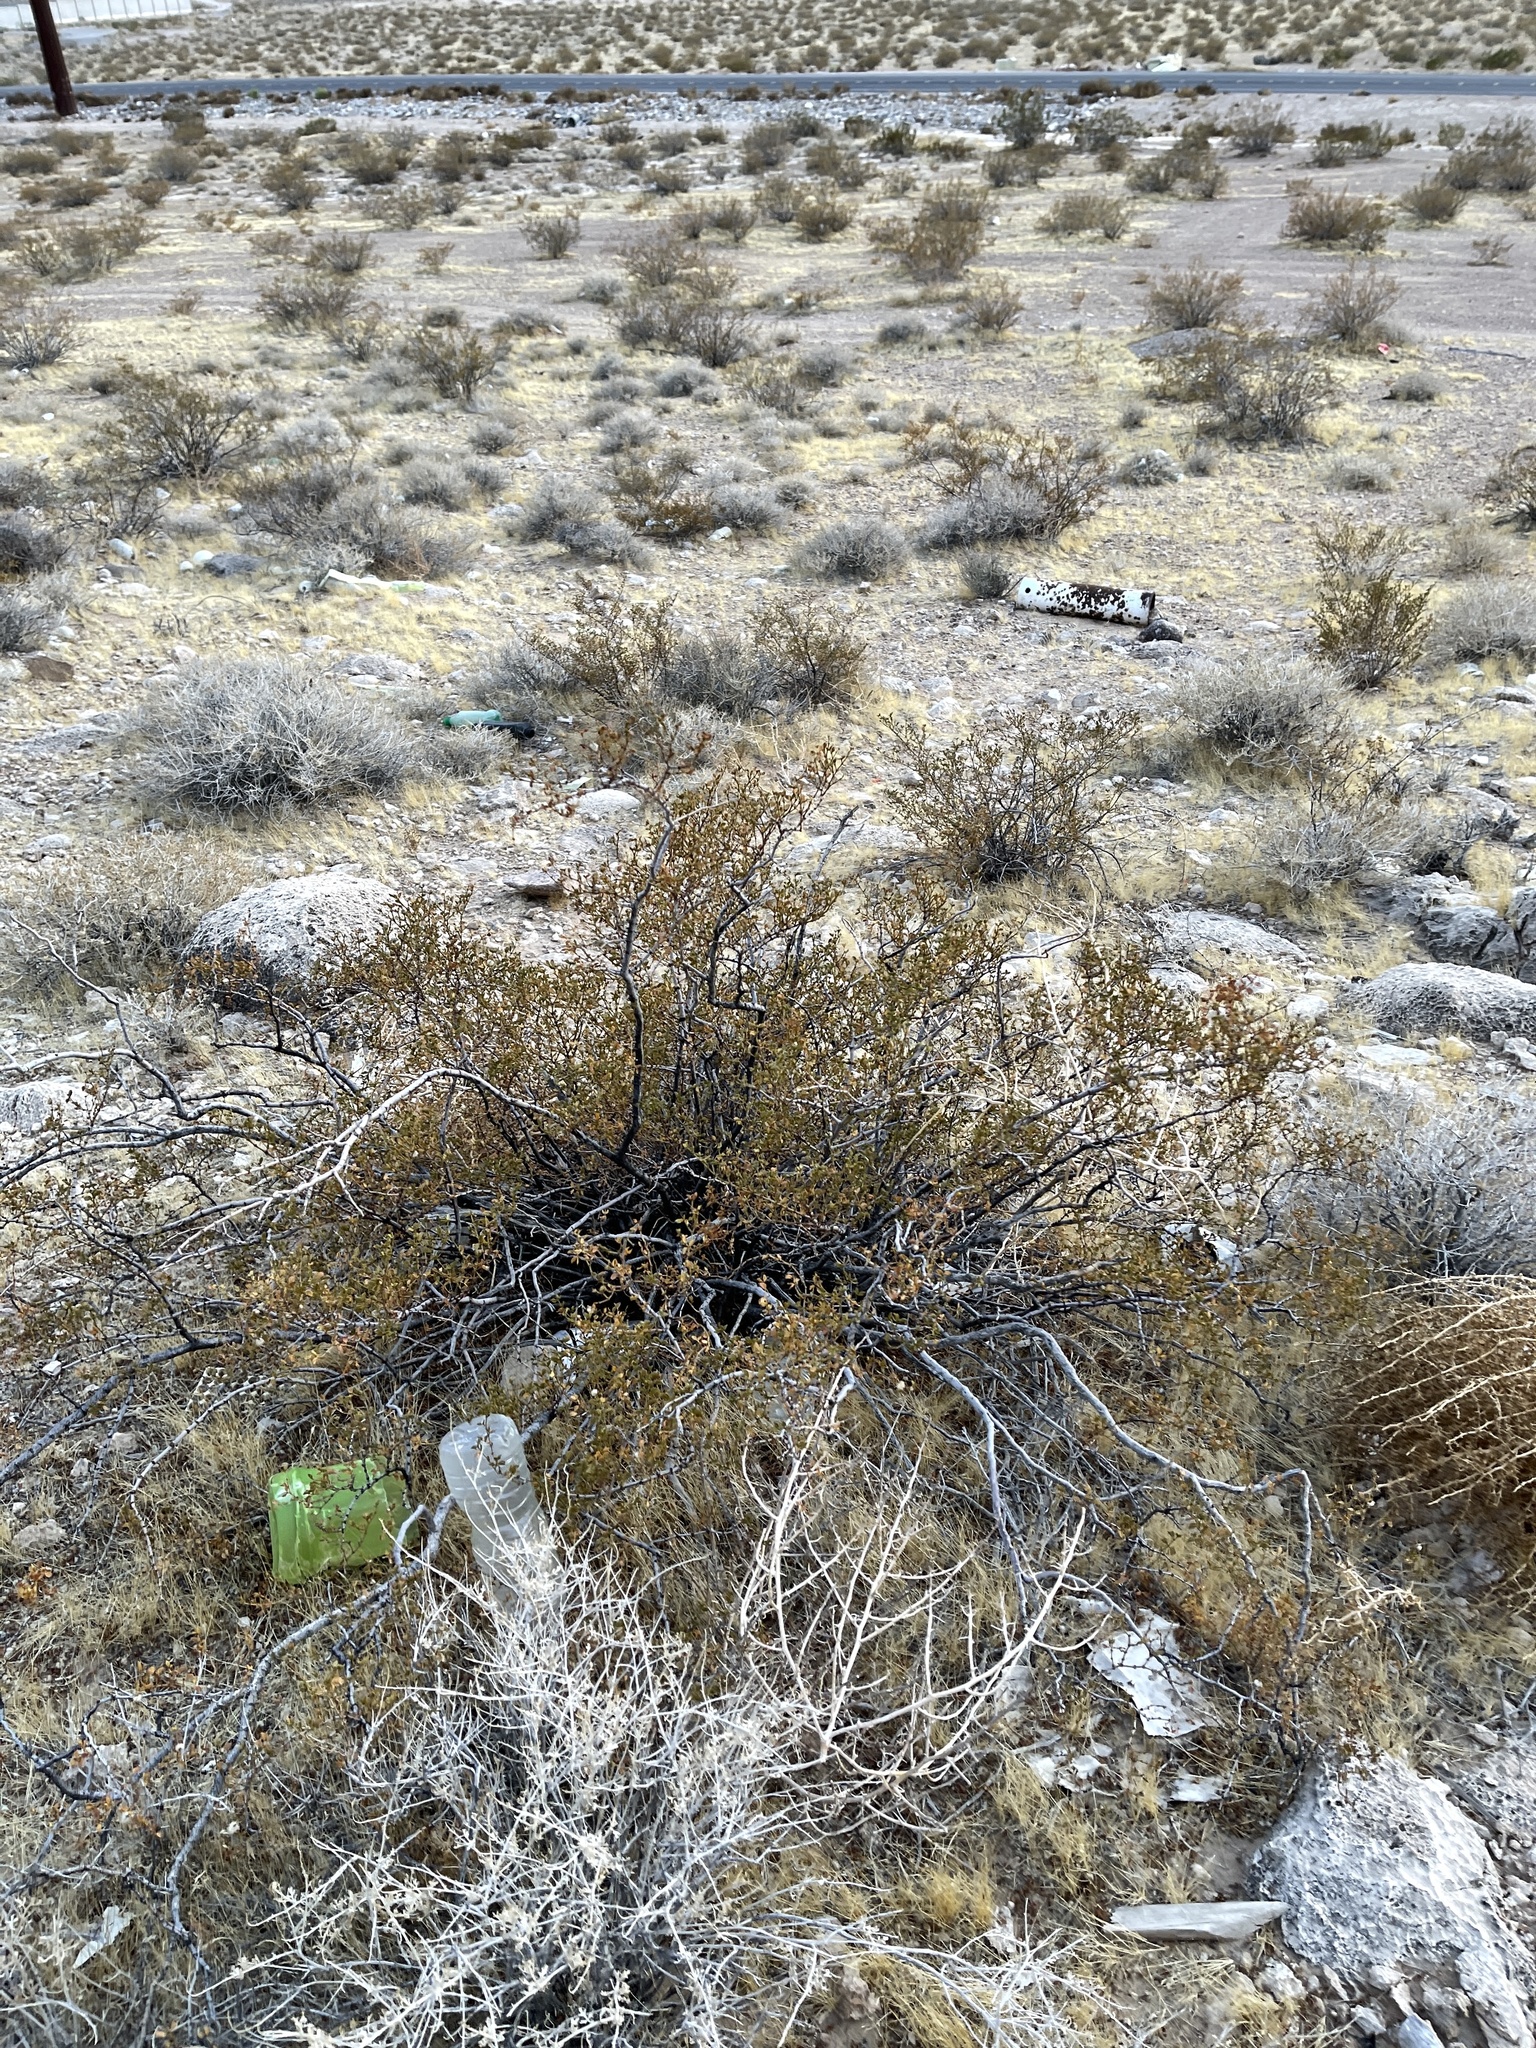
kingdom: Plantae
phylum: Tracheophyta
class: Magnoliopsida
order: Zygophyllales
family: Zygophyllaceae
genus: Larrea
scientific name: Larrea tridentata
